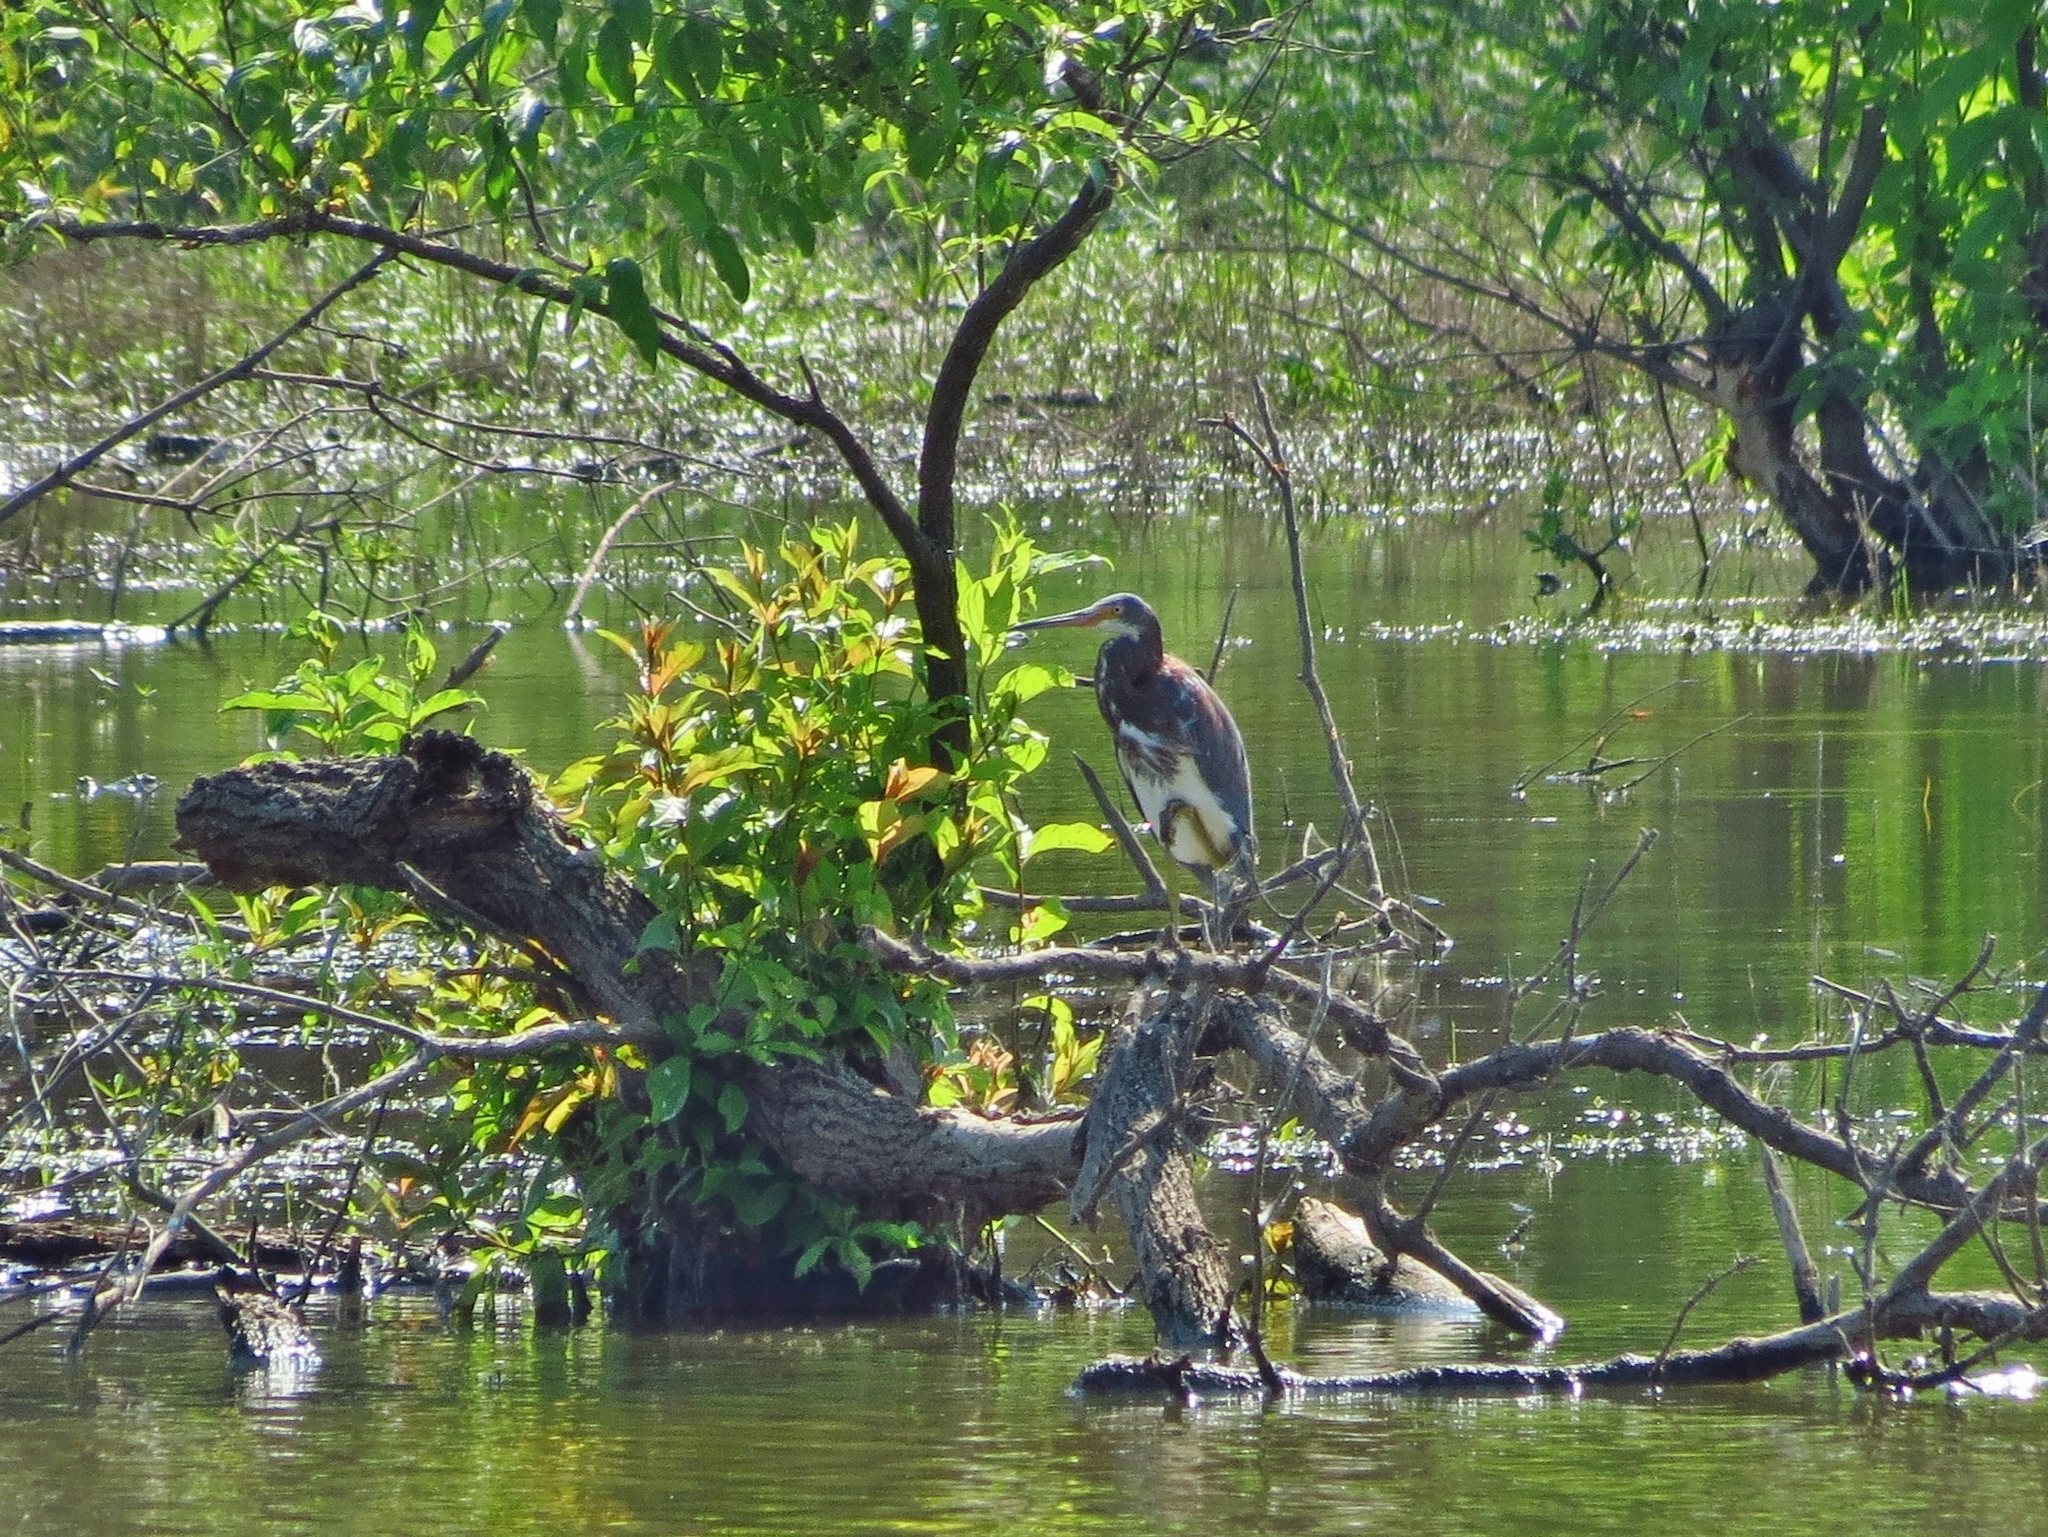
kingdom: Animalia
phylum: Chordata
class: Aves
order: Pelecaniformes
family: Ardeidae
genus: Egretta
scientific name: Egretta tricolor
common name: Tricolored heron
